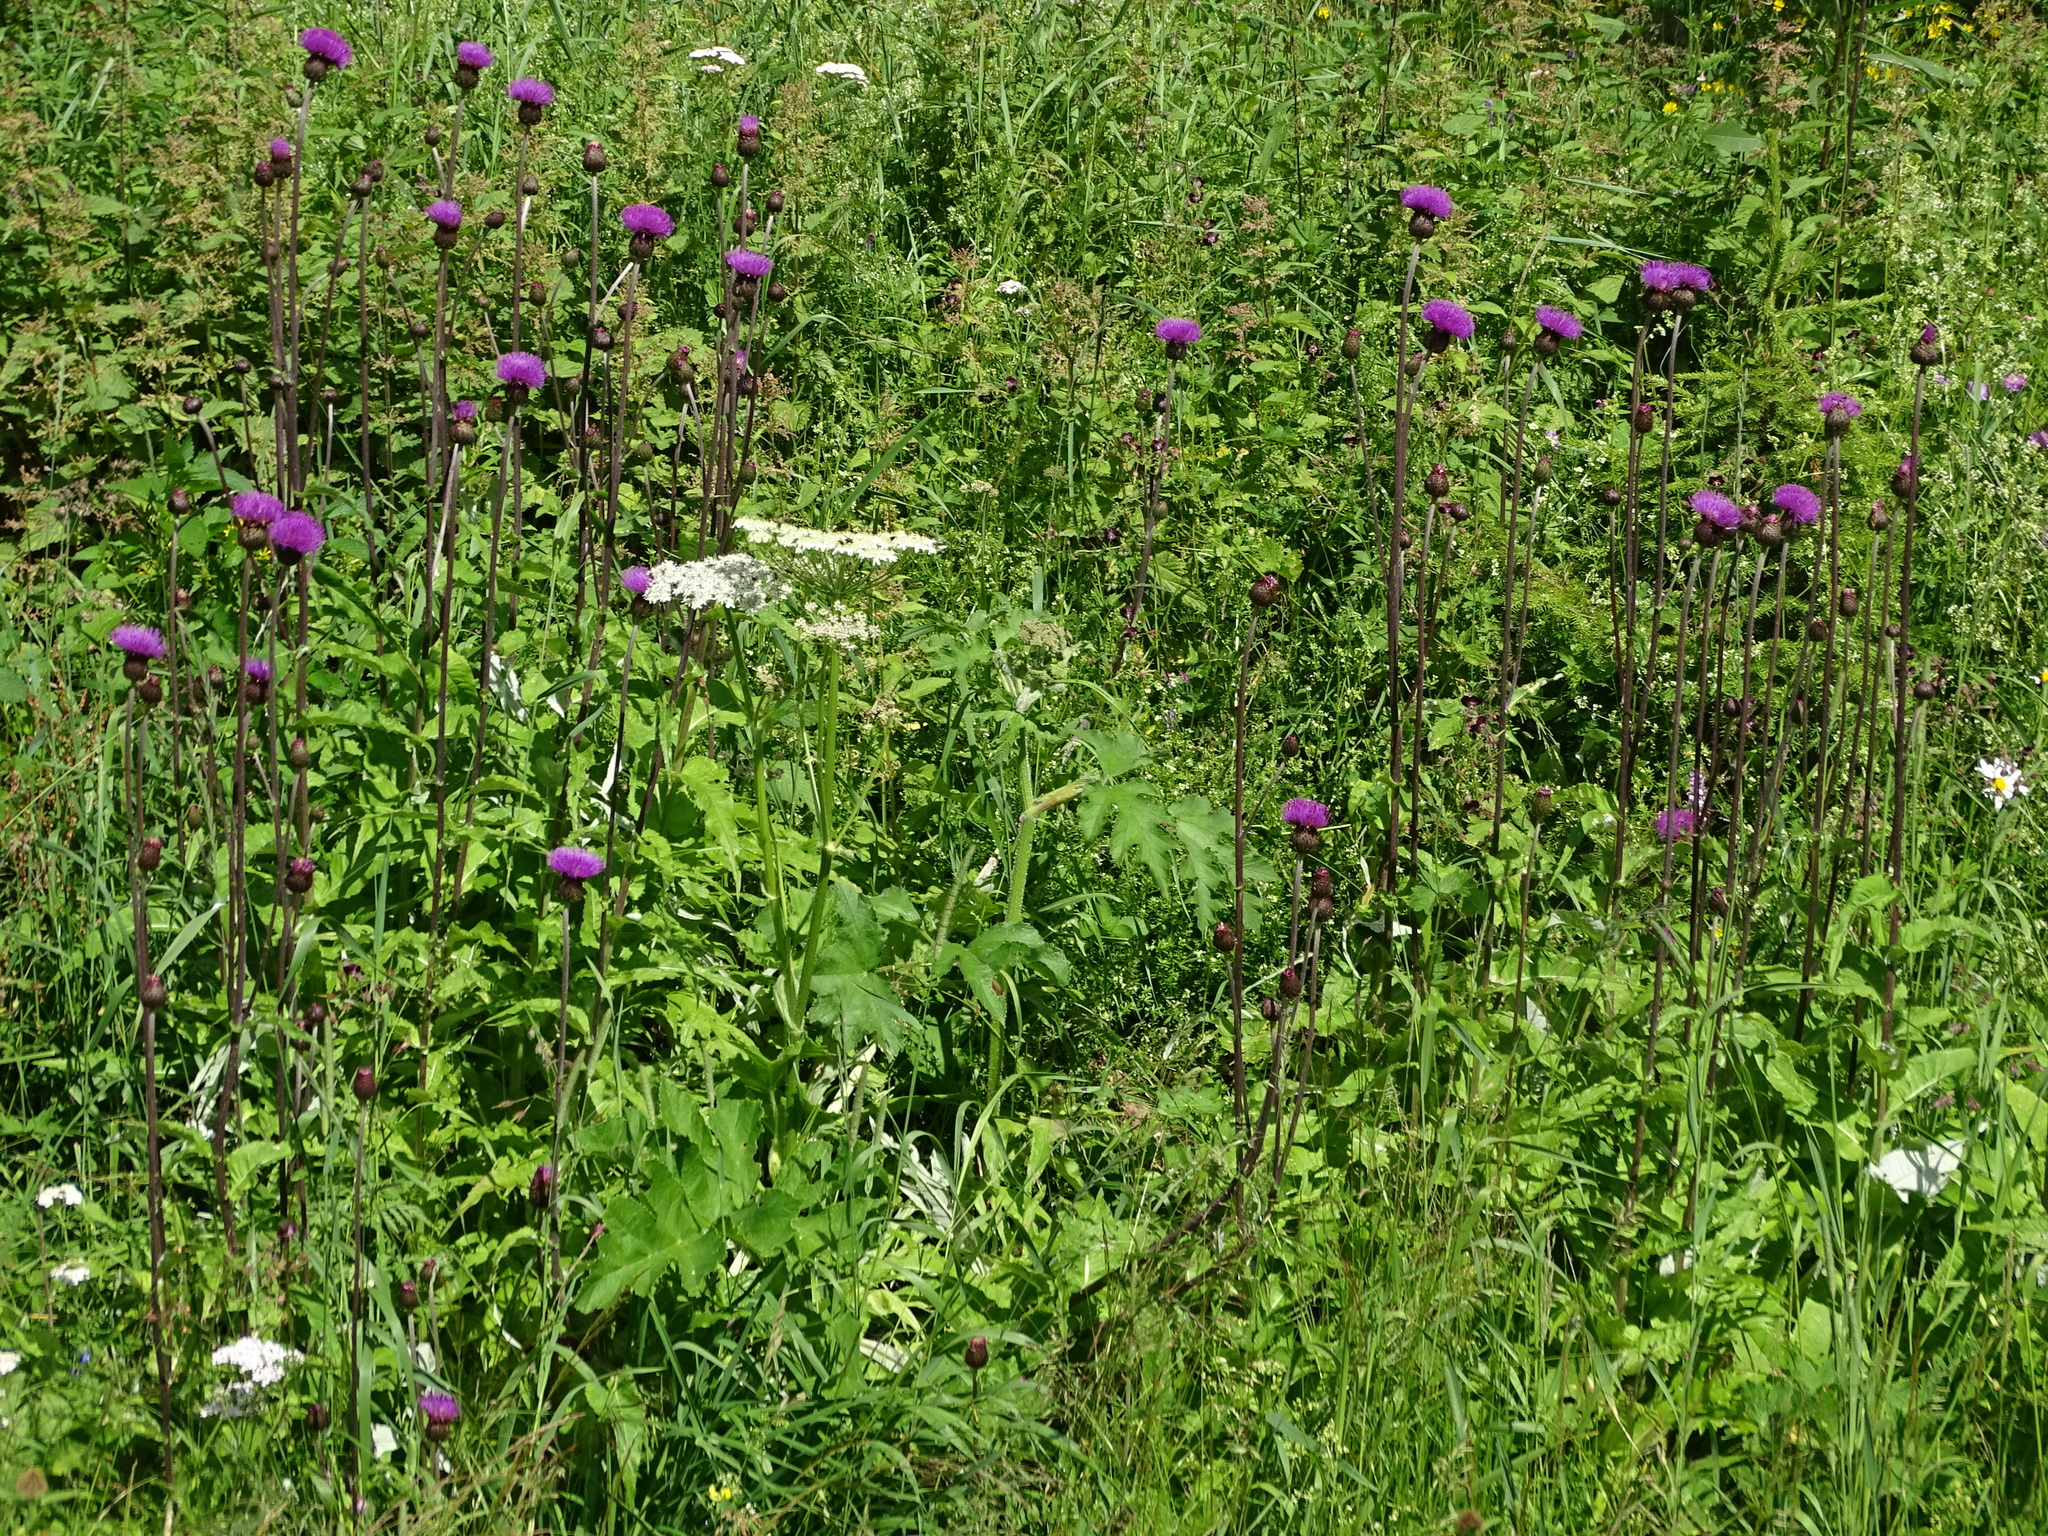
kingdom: Plantae
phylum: Tracheophyta
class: Magnoliopsida
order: Asterales
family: Asteraceae
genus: Cirsium
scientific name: Cirsium heterophyllum
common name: Melancholy thistle
